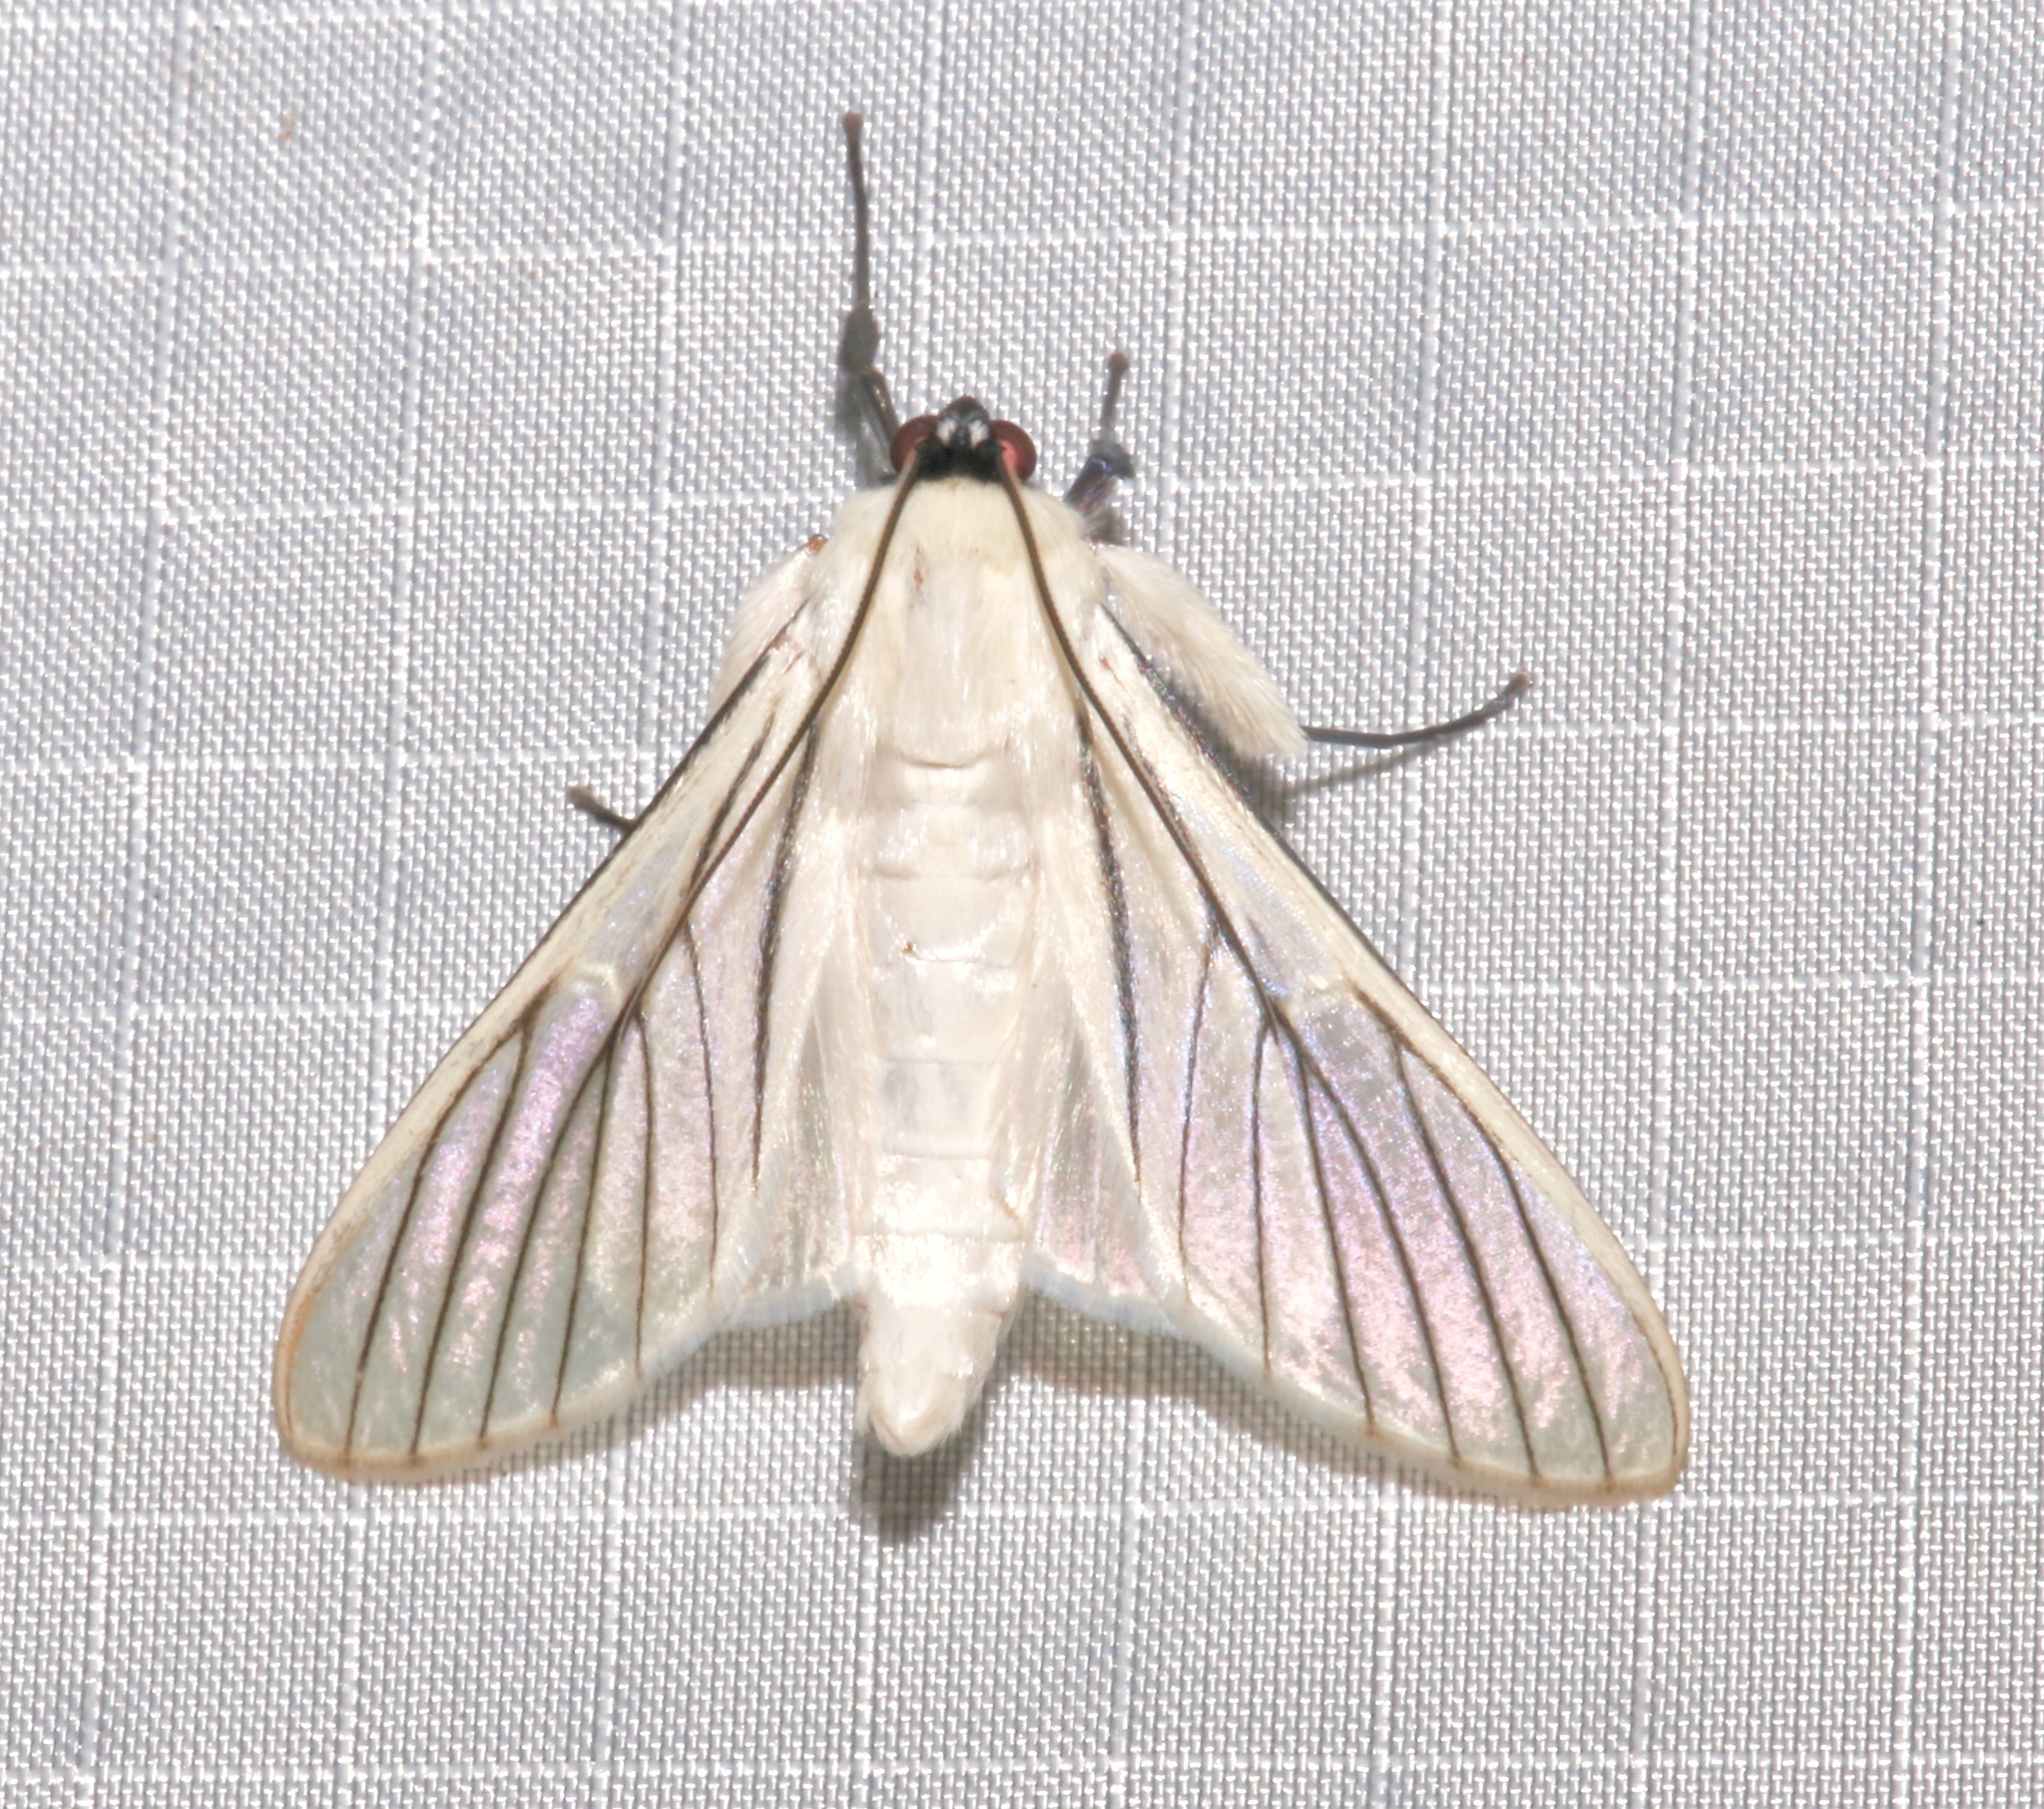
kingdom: Animalia
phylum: Arthropoda
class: Insecta
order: Lepidoptera
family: Crambidae
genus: Polygrammodes
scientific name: Polygrammodes quatrilis
